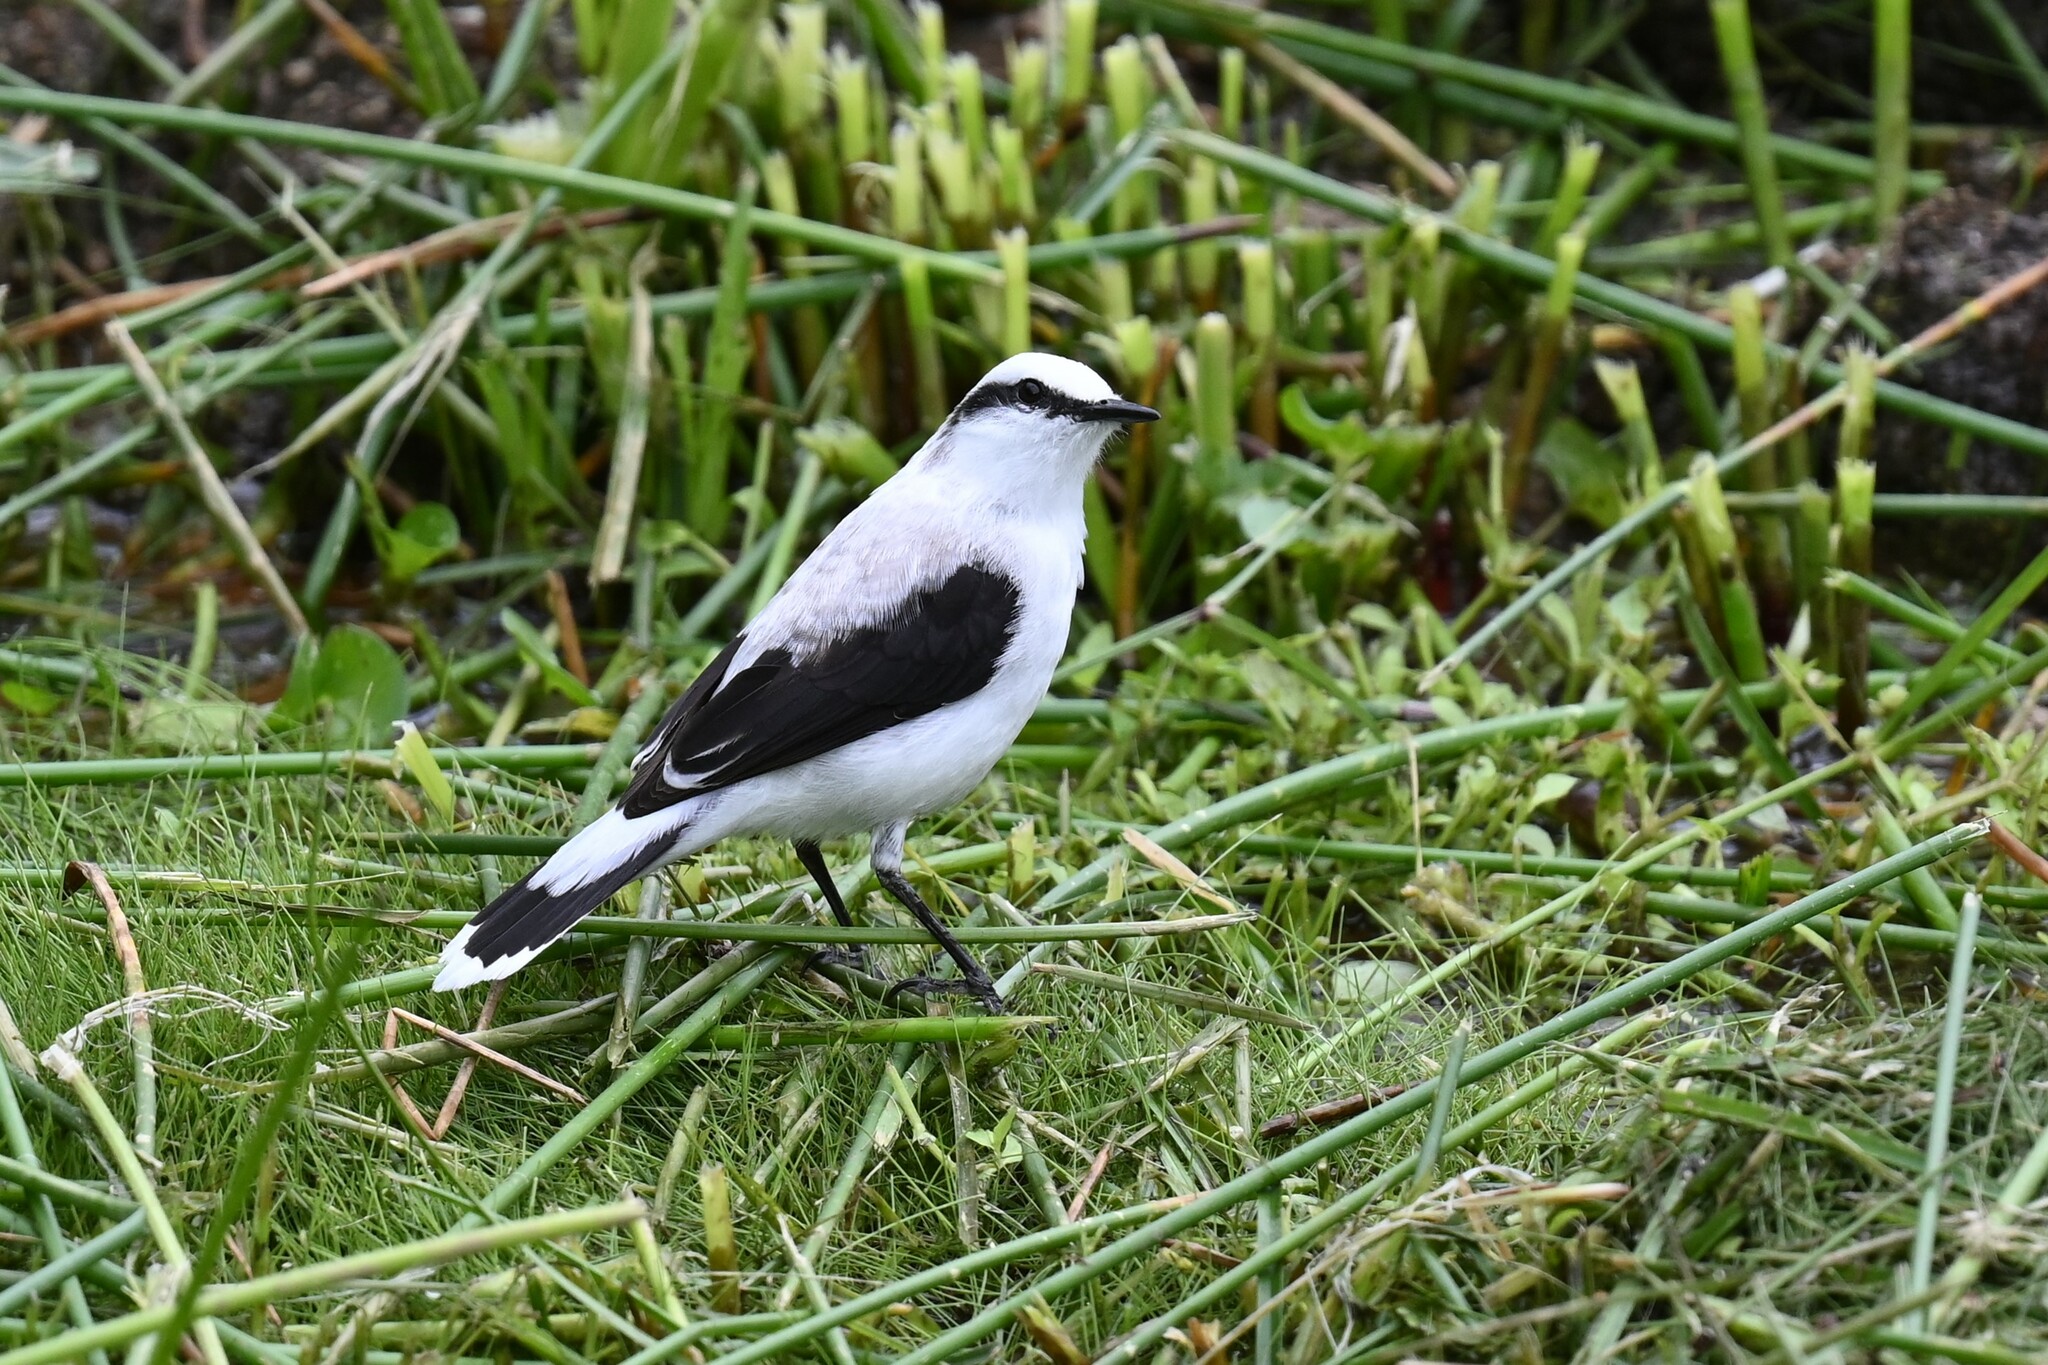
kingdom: Animalia
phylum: Chordata
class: Aves
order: Passeriformes
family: Tyrannidae
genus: Fluvicola
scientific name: Fluvicola nengeta
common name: Masked water tyrant
